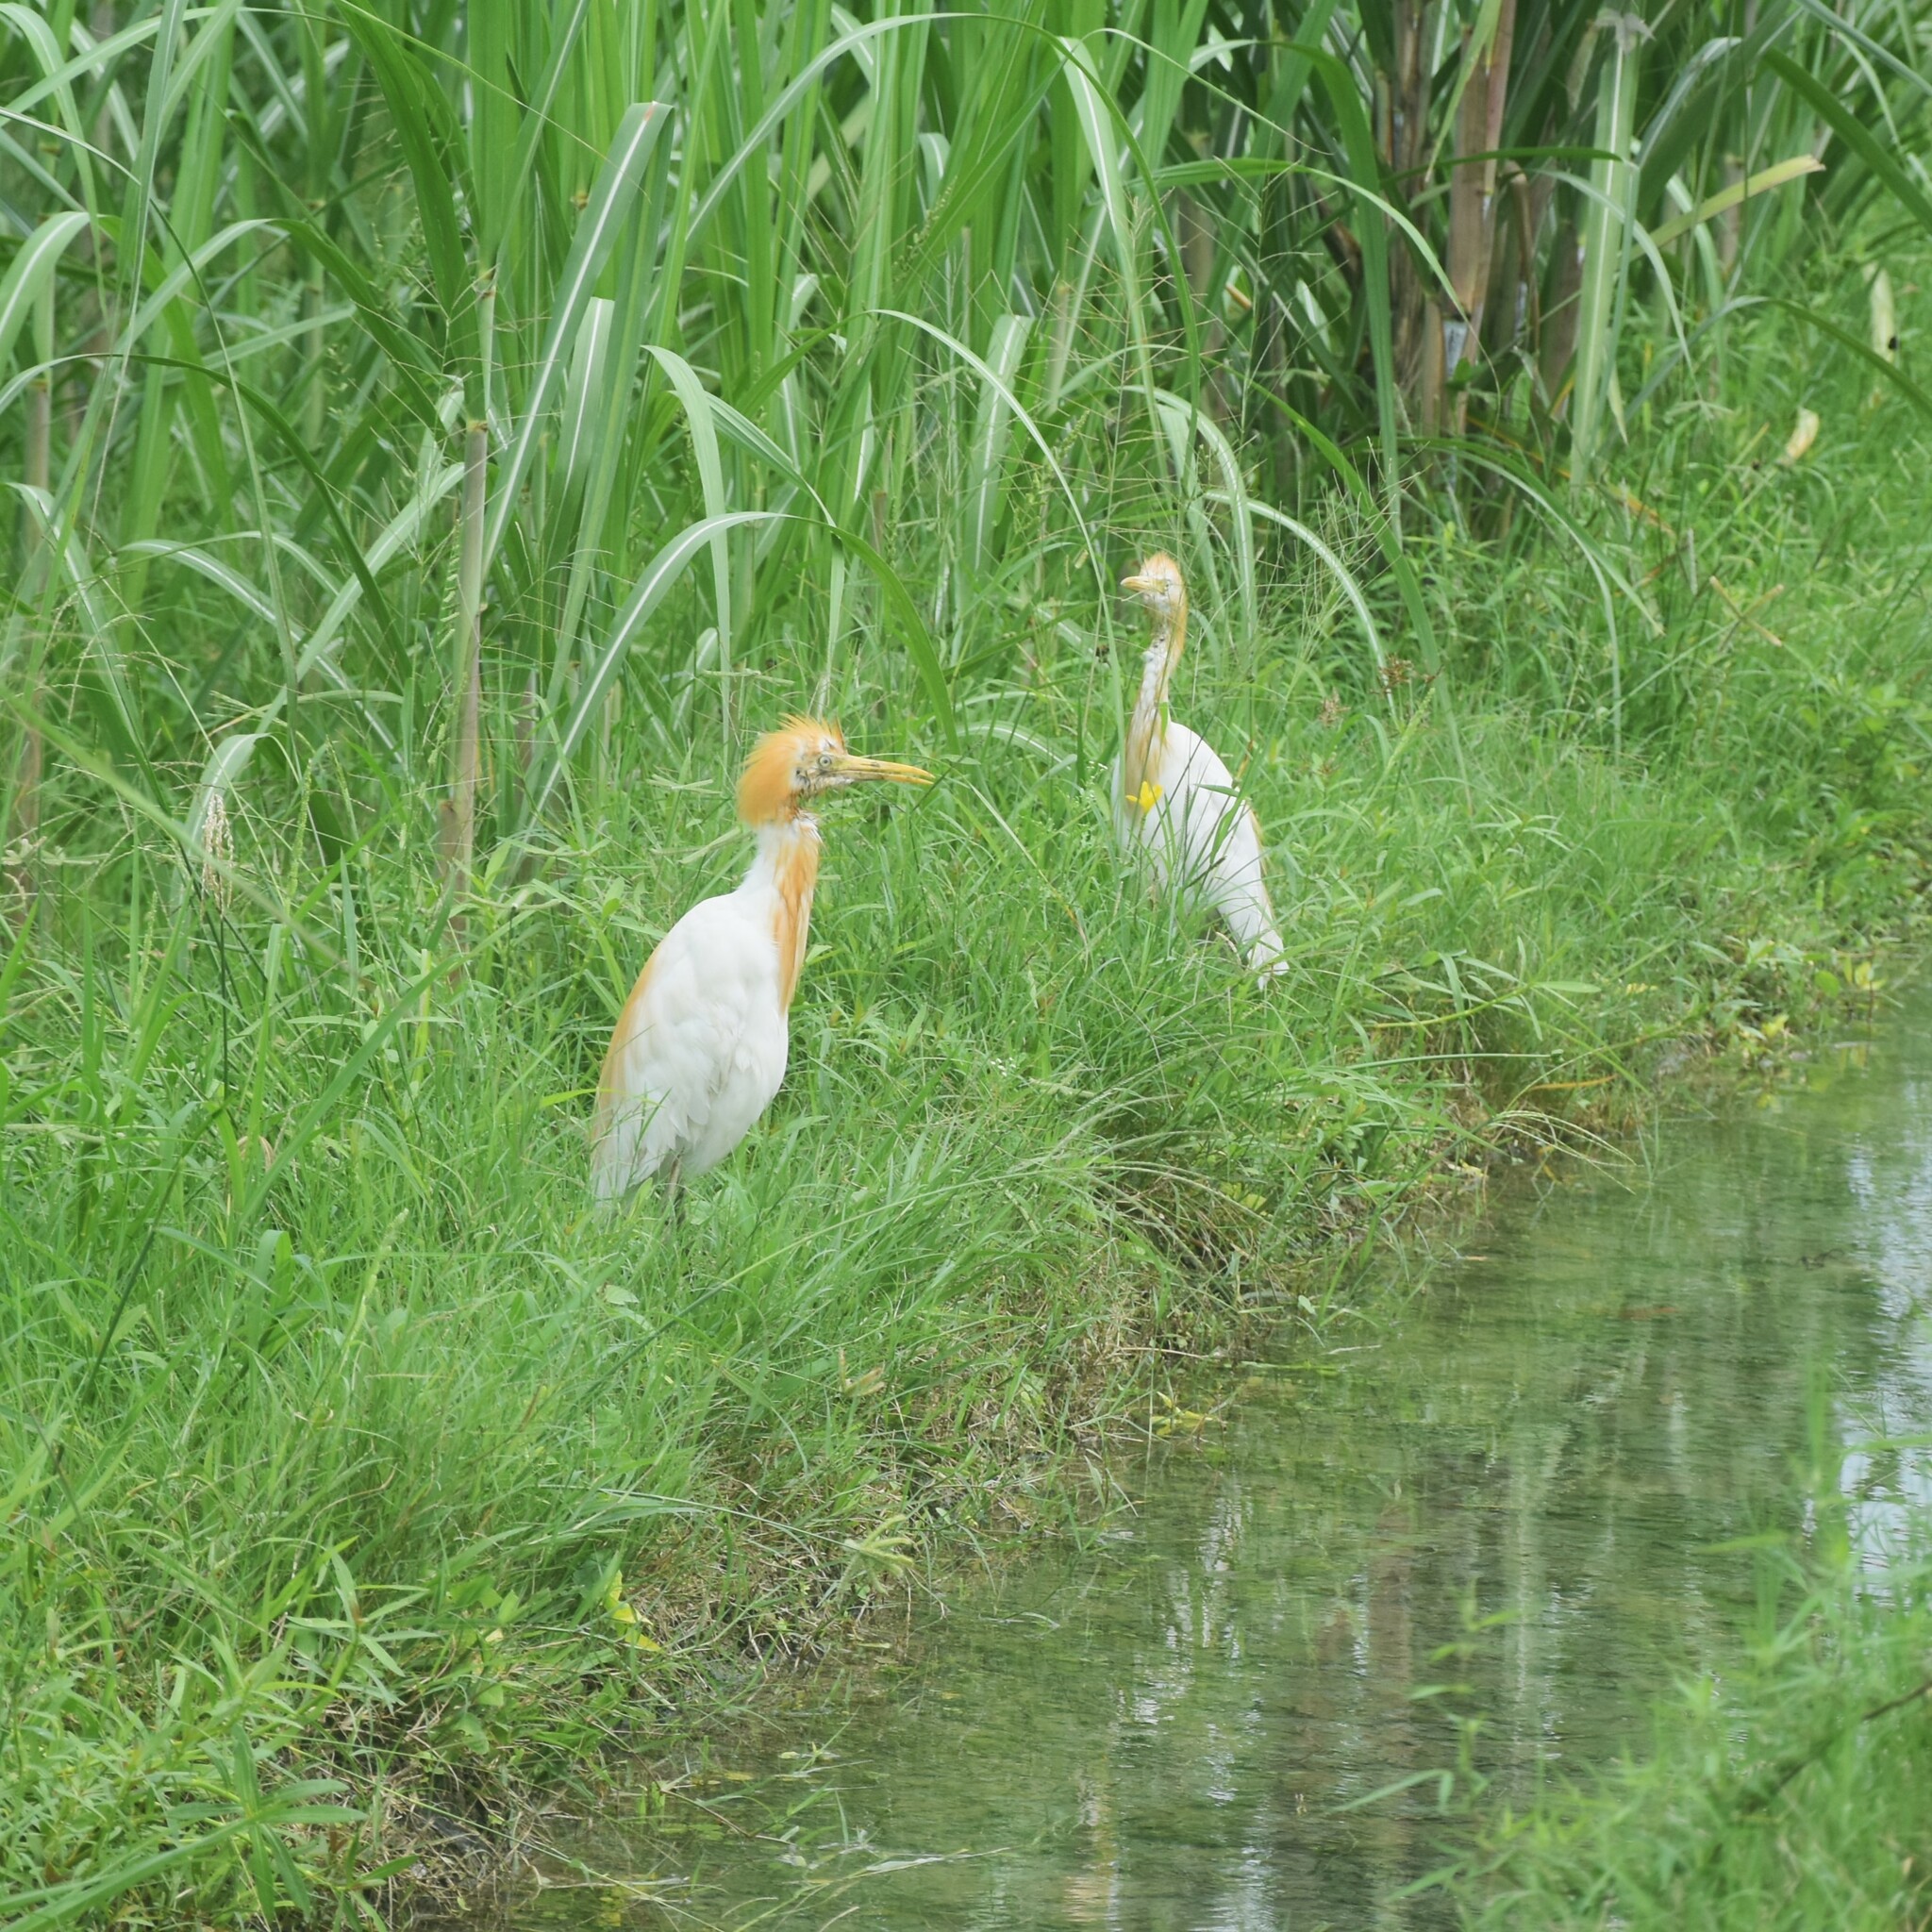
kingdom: Animalia
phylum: Chordata
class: Aves
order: Pelecaniformes
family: Ardeidae
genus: Bubulcus
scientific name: Bubulcus coromandus
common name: Eastern cattle egret
